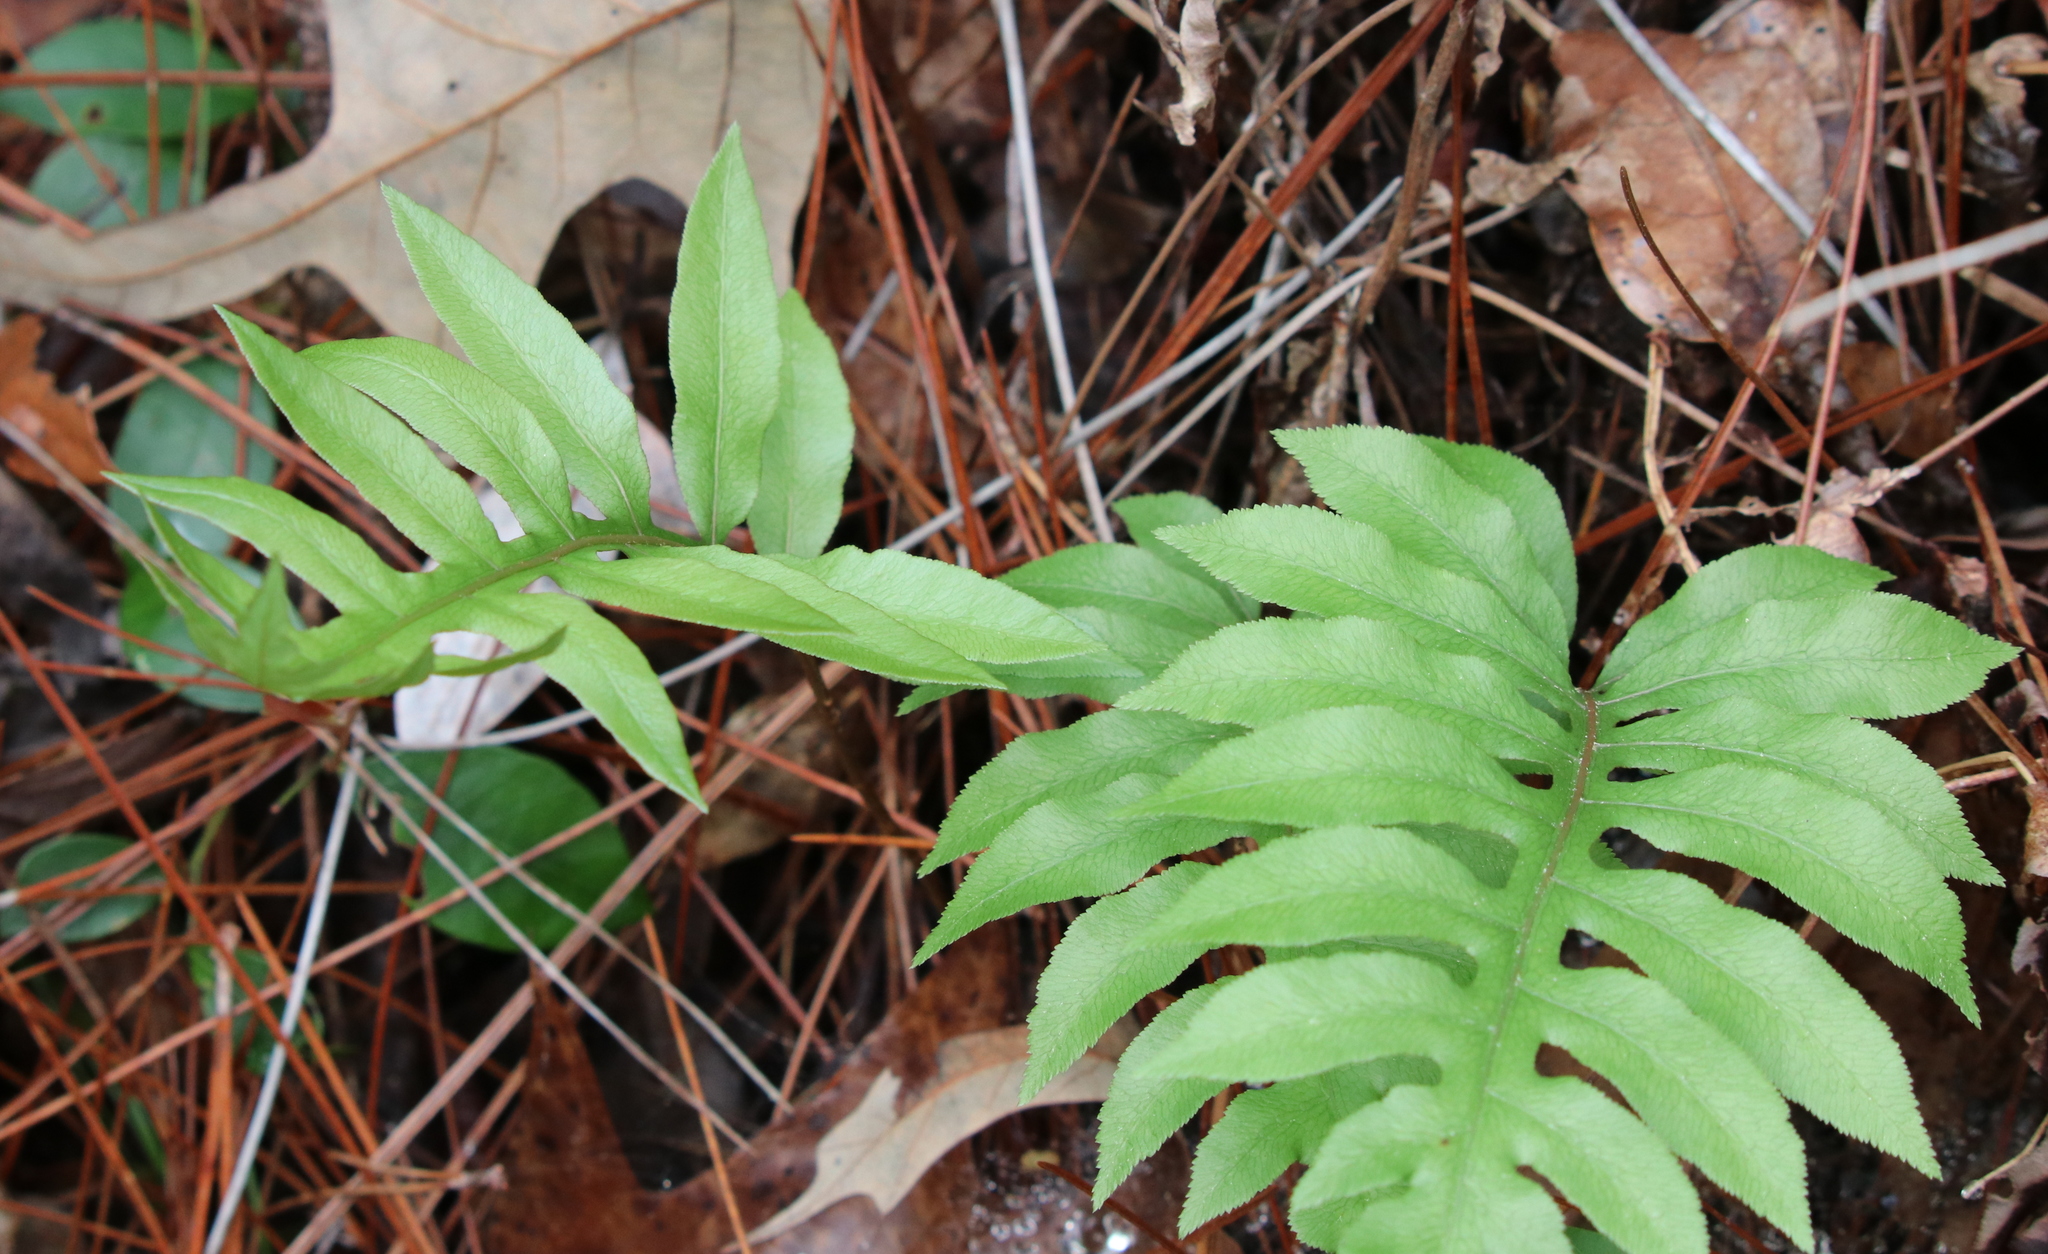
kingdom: Plantae
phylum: Tracheophyta
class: Polypodiopsida
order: Polypodiales
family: Blechnaceae
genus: Lorinseria
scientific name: Lorinseria areolata
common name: Dwarf chain fern
